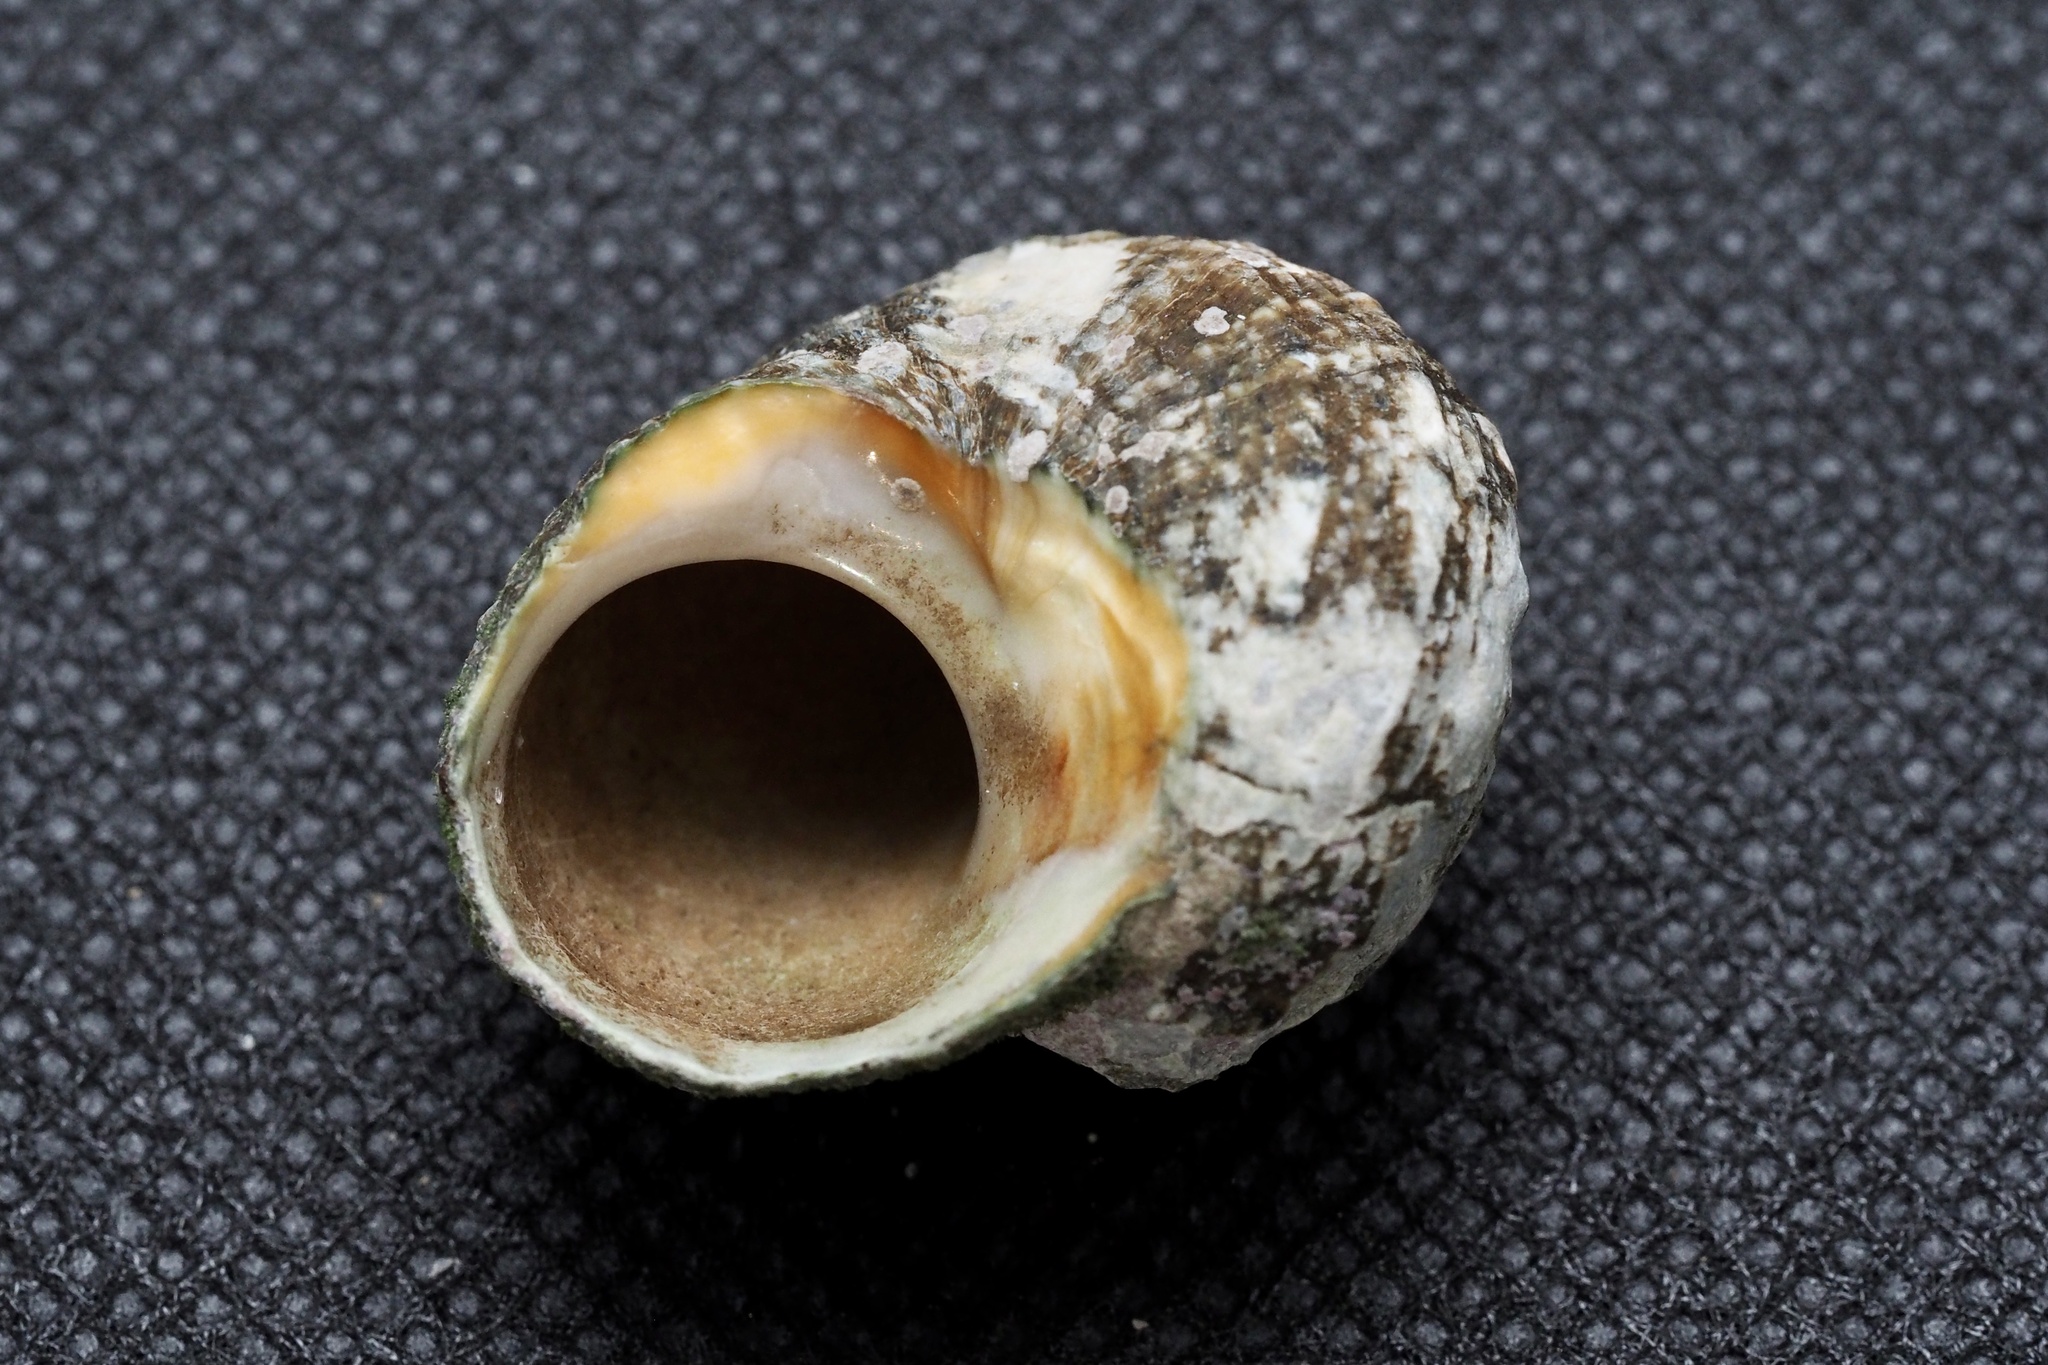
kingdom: Animalia
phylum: Mollusca
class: Gastropoda
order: Trochida
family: Turbinidae
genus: Lunella
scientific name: Lunella correensis
